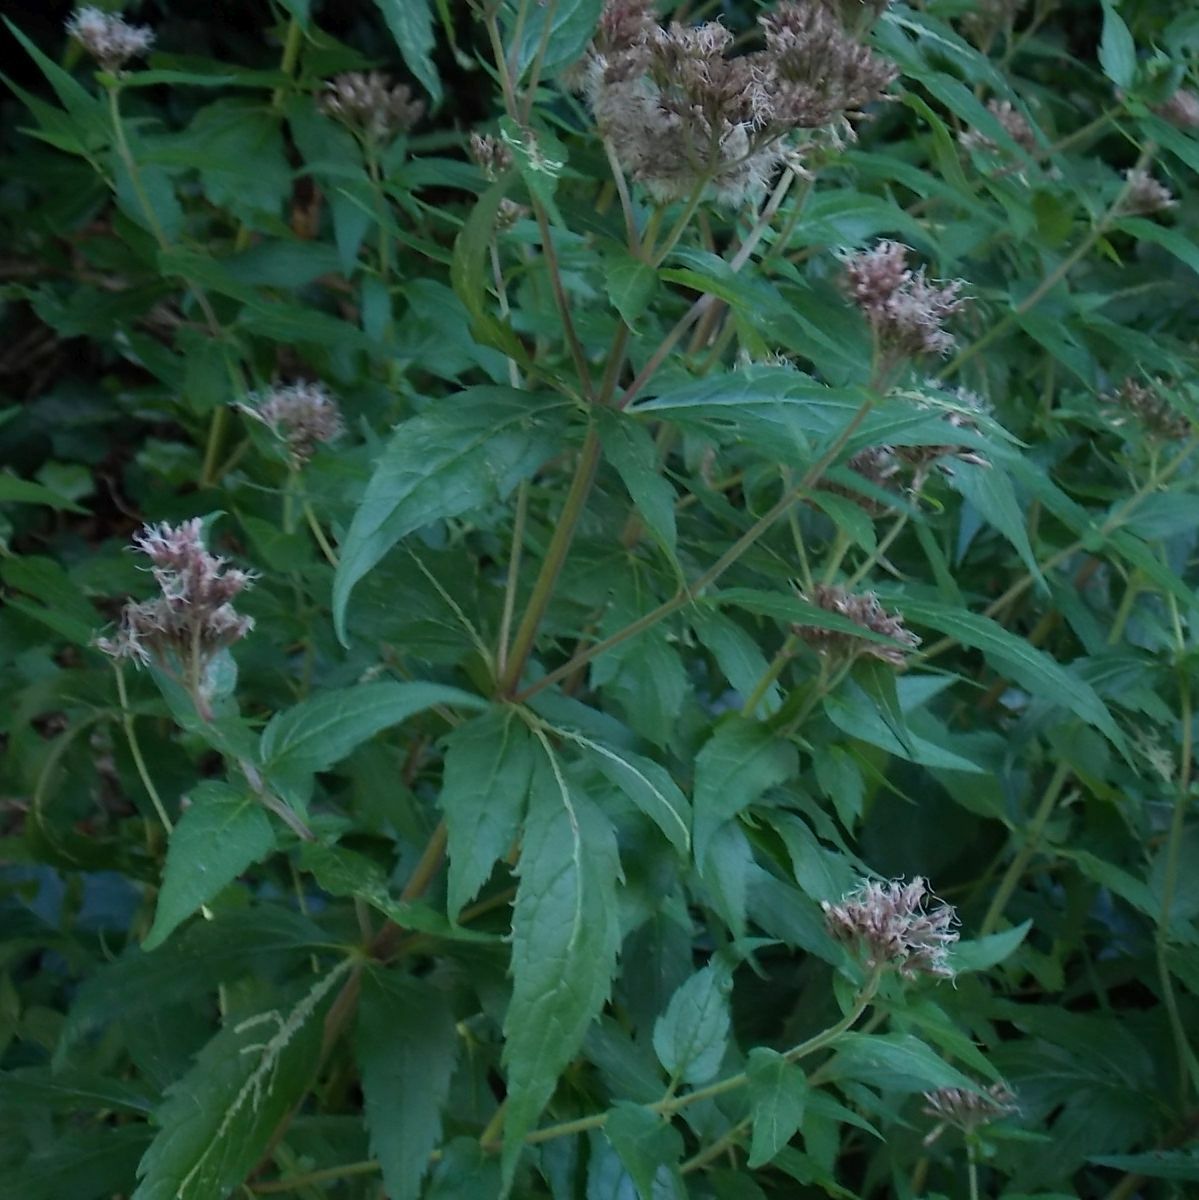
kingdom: Plantae
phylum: Tracheophyta
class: Magnoliopsida
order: Asterales
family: Asteraceae
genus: Eupatorium
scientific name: Eupatorium cannabinum
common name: Hemp-agrimony
